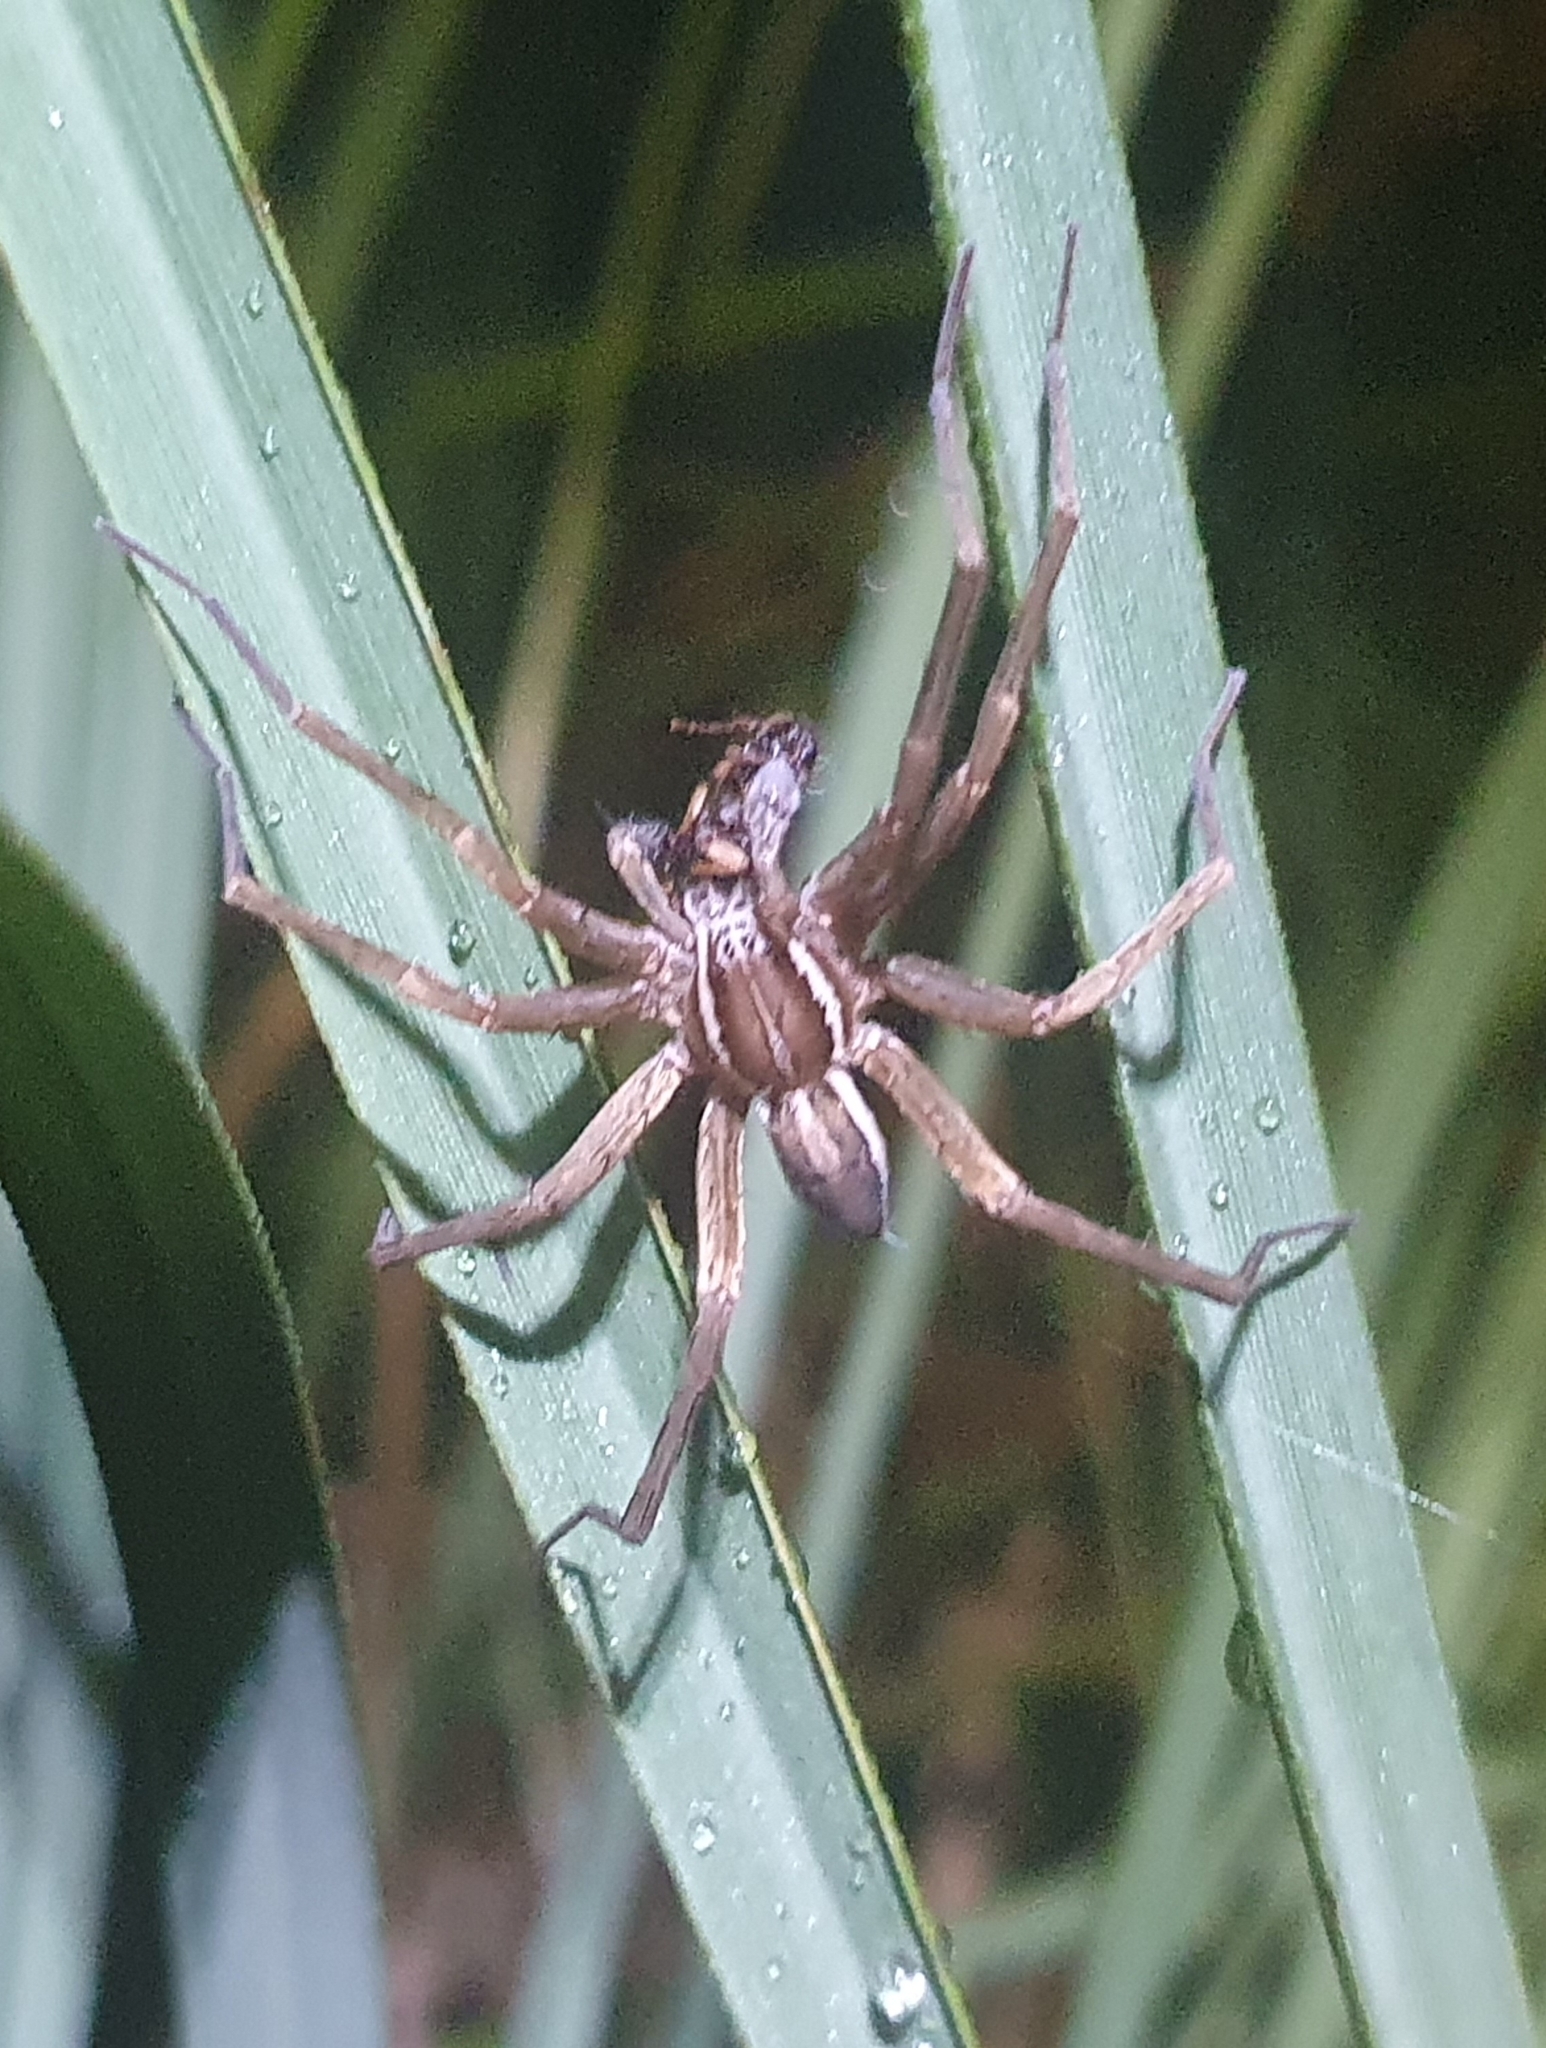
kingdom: Animalia
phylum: Arthropoda
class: Arachnida
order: Araneae
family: Pisauridae
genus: Dolomedes
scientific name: Dolomedes minor
